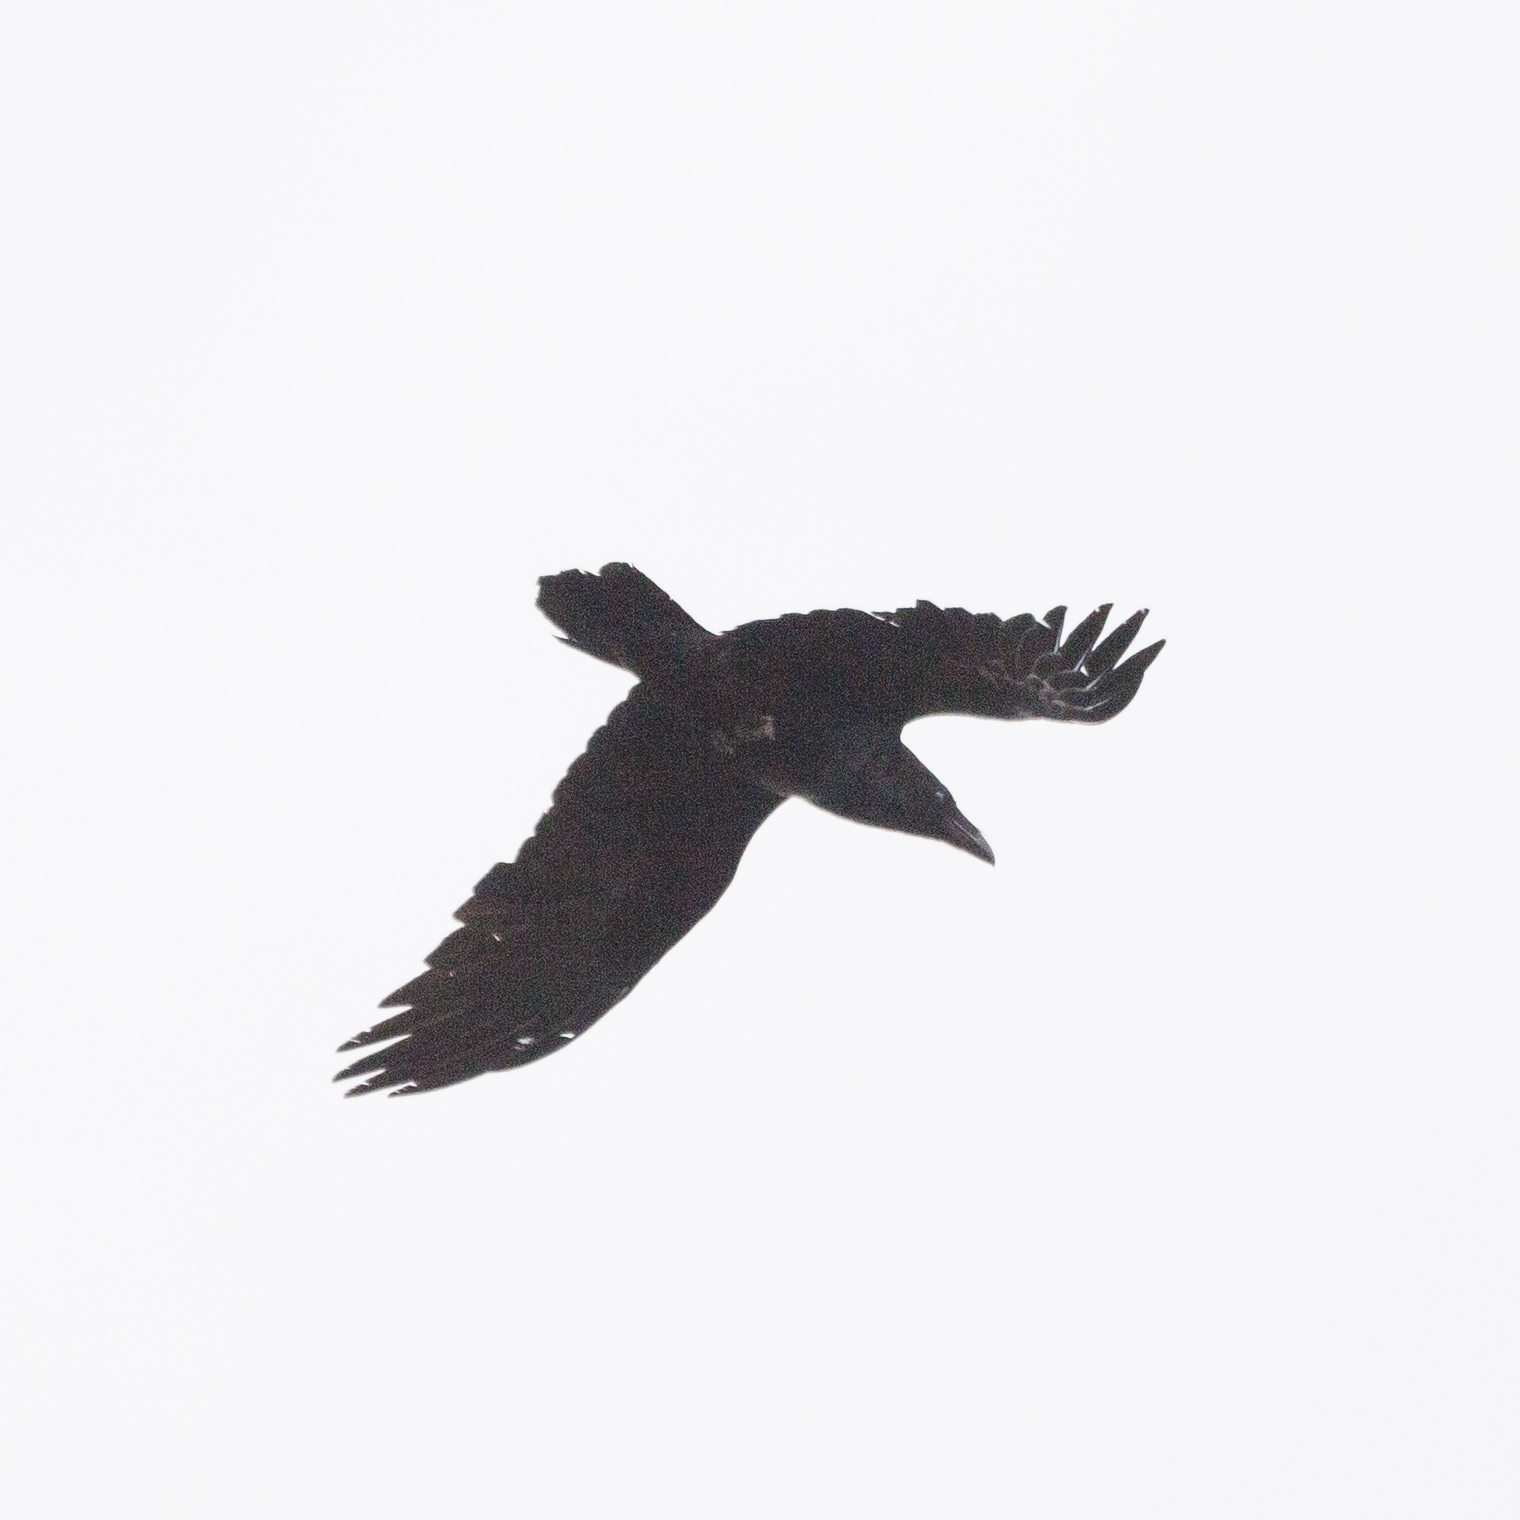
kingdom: Animalia
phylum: Chordata
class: Aves
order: Passeriformes
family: Corvidae
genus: Corvus
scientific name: Corvus corax
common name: Common raven
